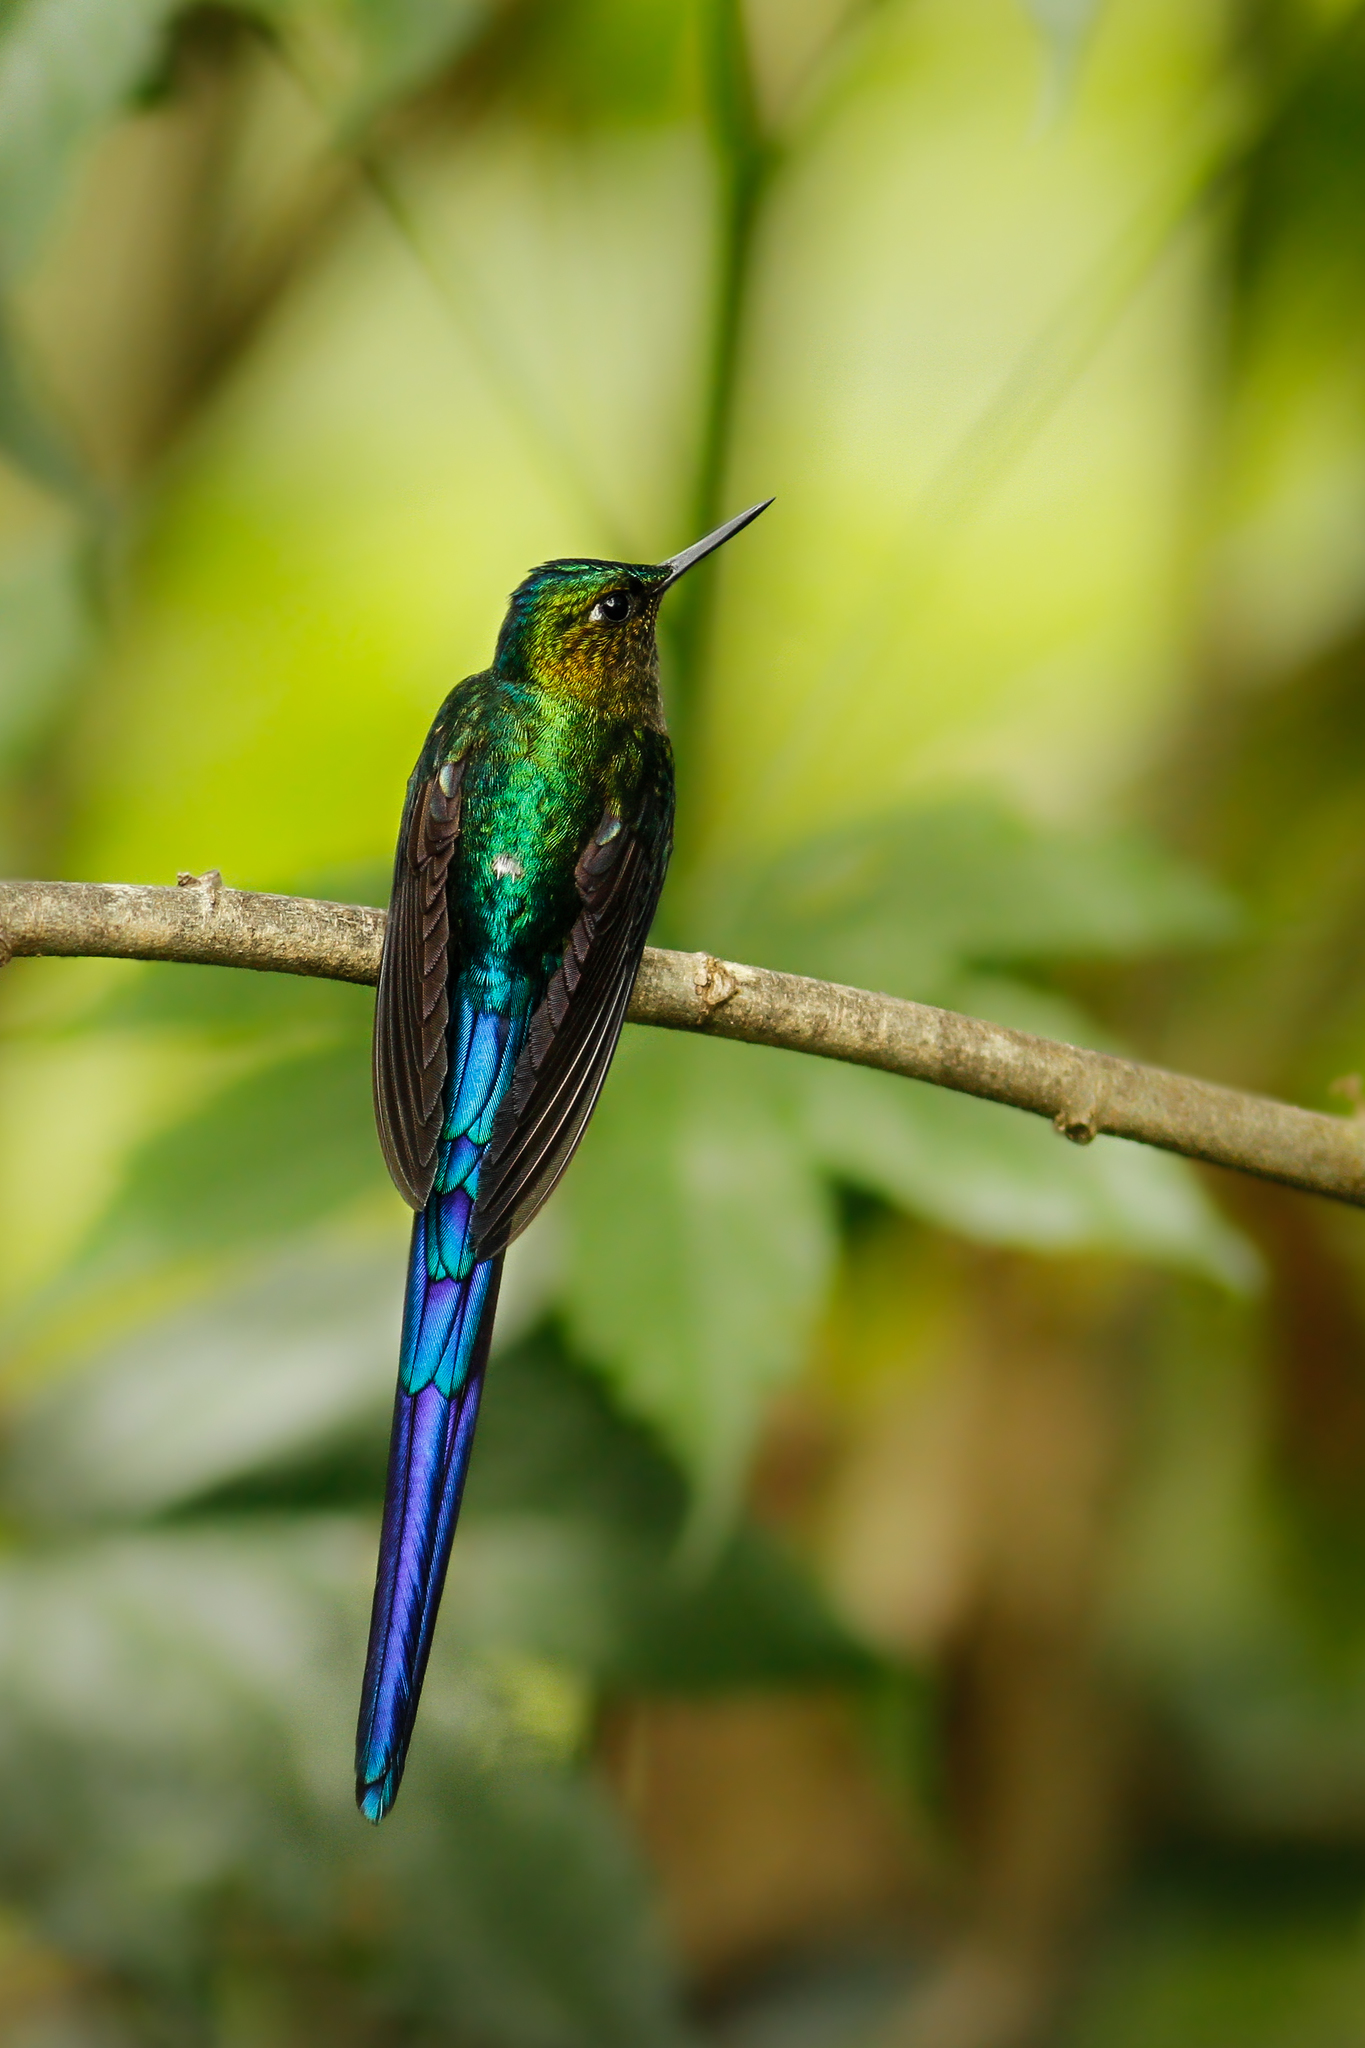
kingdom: Animalia
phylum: Chordata
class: Aves
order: Apodiformes
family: Trochilidae
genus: Aglaiocercus
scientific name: Aglaiocercus coelestis
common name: Violet-tailed sylph
